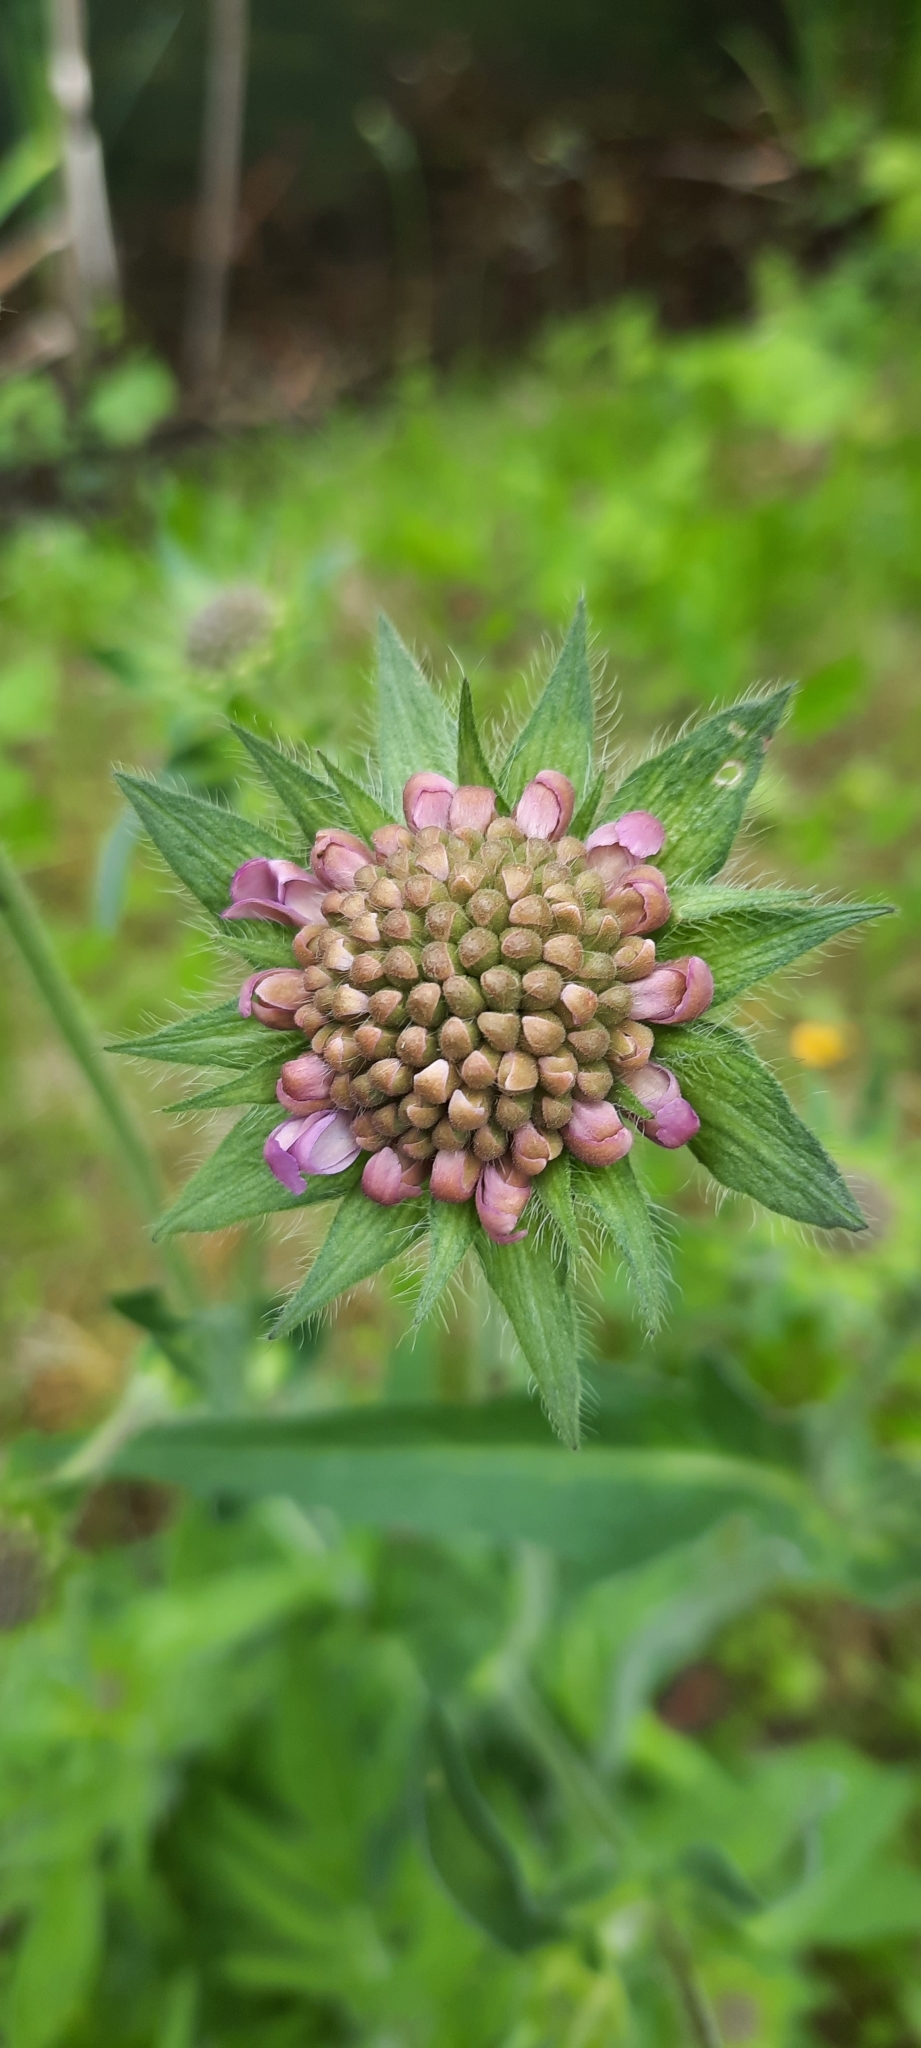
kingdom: Plantae
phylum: Tracheophyta
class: Magnoliopsida
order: Dipsacales
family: Caprifoliaceae
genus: Knautia
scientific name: Knautia arvensis
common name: Field scabiosa
